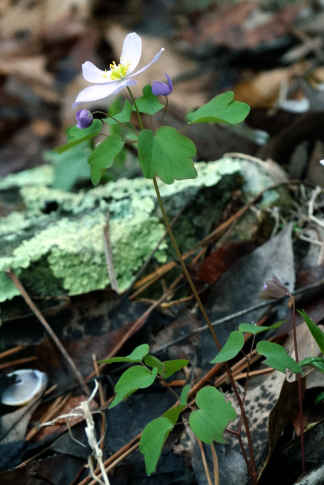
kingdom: Plantae
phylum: Tracheophyta
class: Magnoliopsida
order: Ranunculales
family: Ranunculaceae
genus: Thalictrum
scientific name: Thalictrum thalictroides
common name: Rue-anemone
